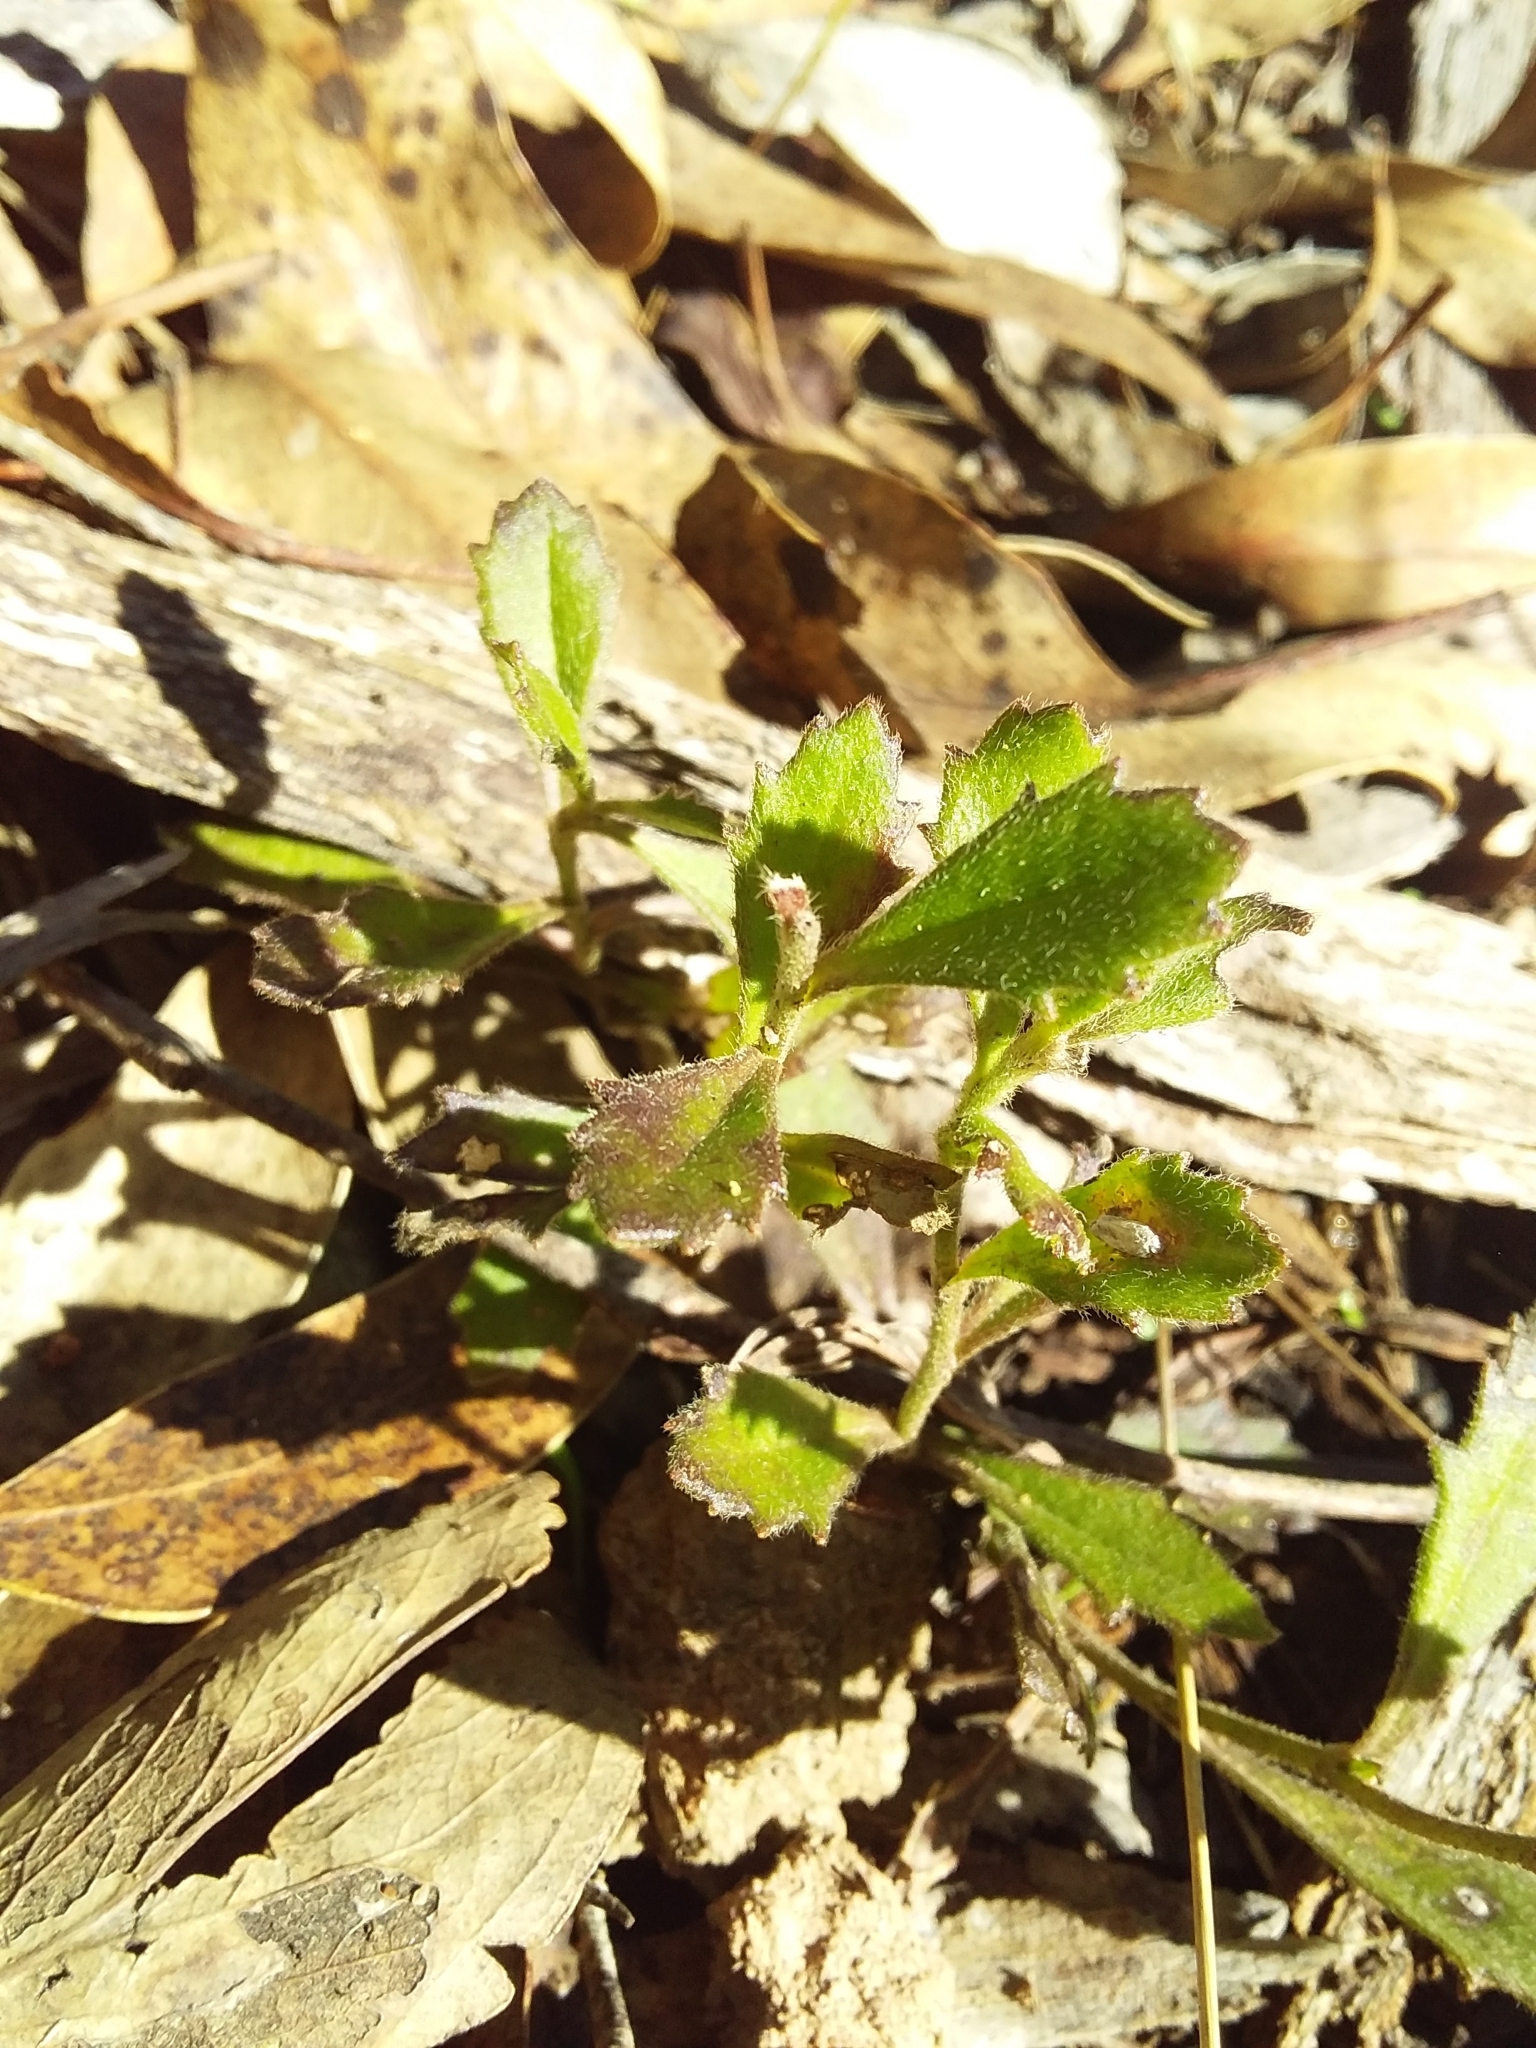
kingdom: Plantae
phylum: Tracheophyta
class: Magnoliopsida
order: Asterales
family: Goodeniaceae
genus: Scaevola
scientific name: Scaevola albida
